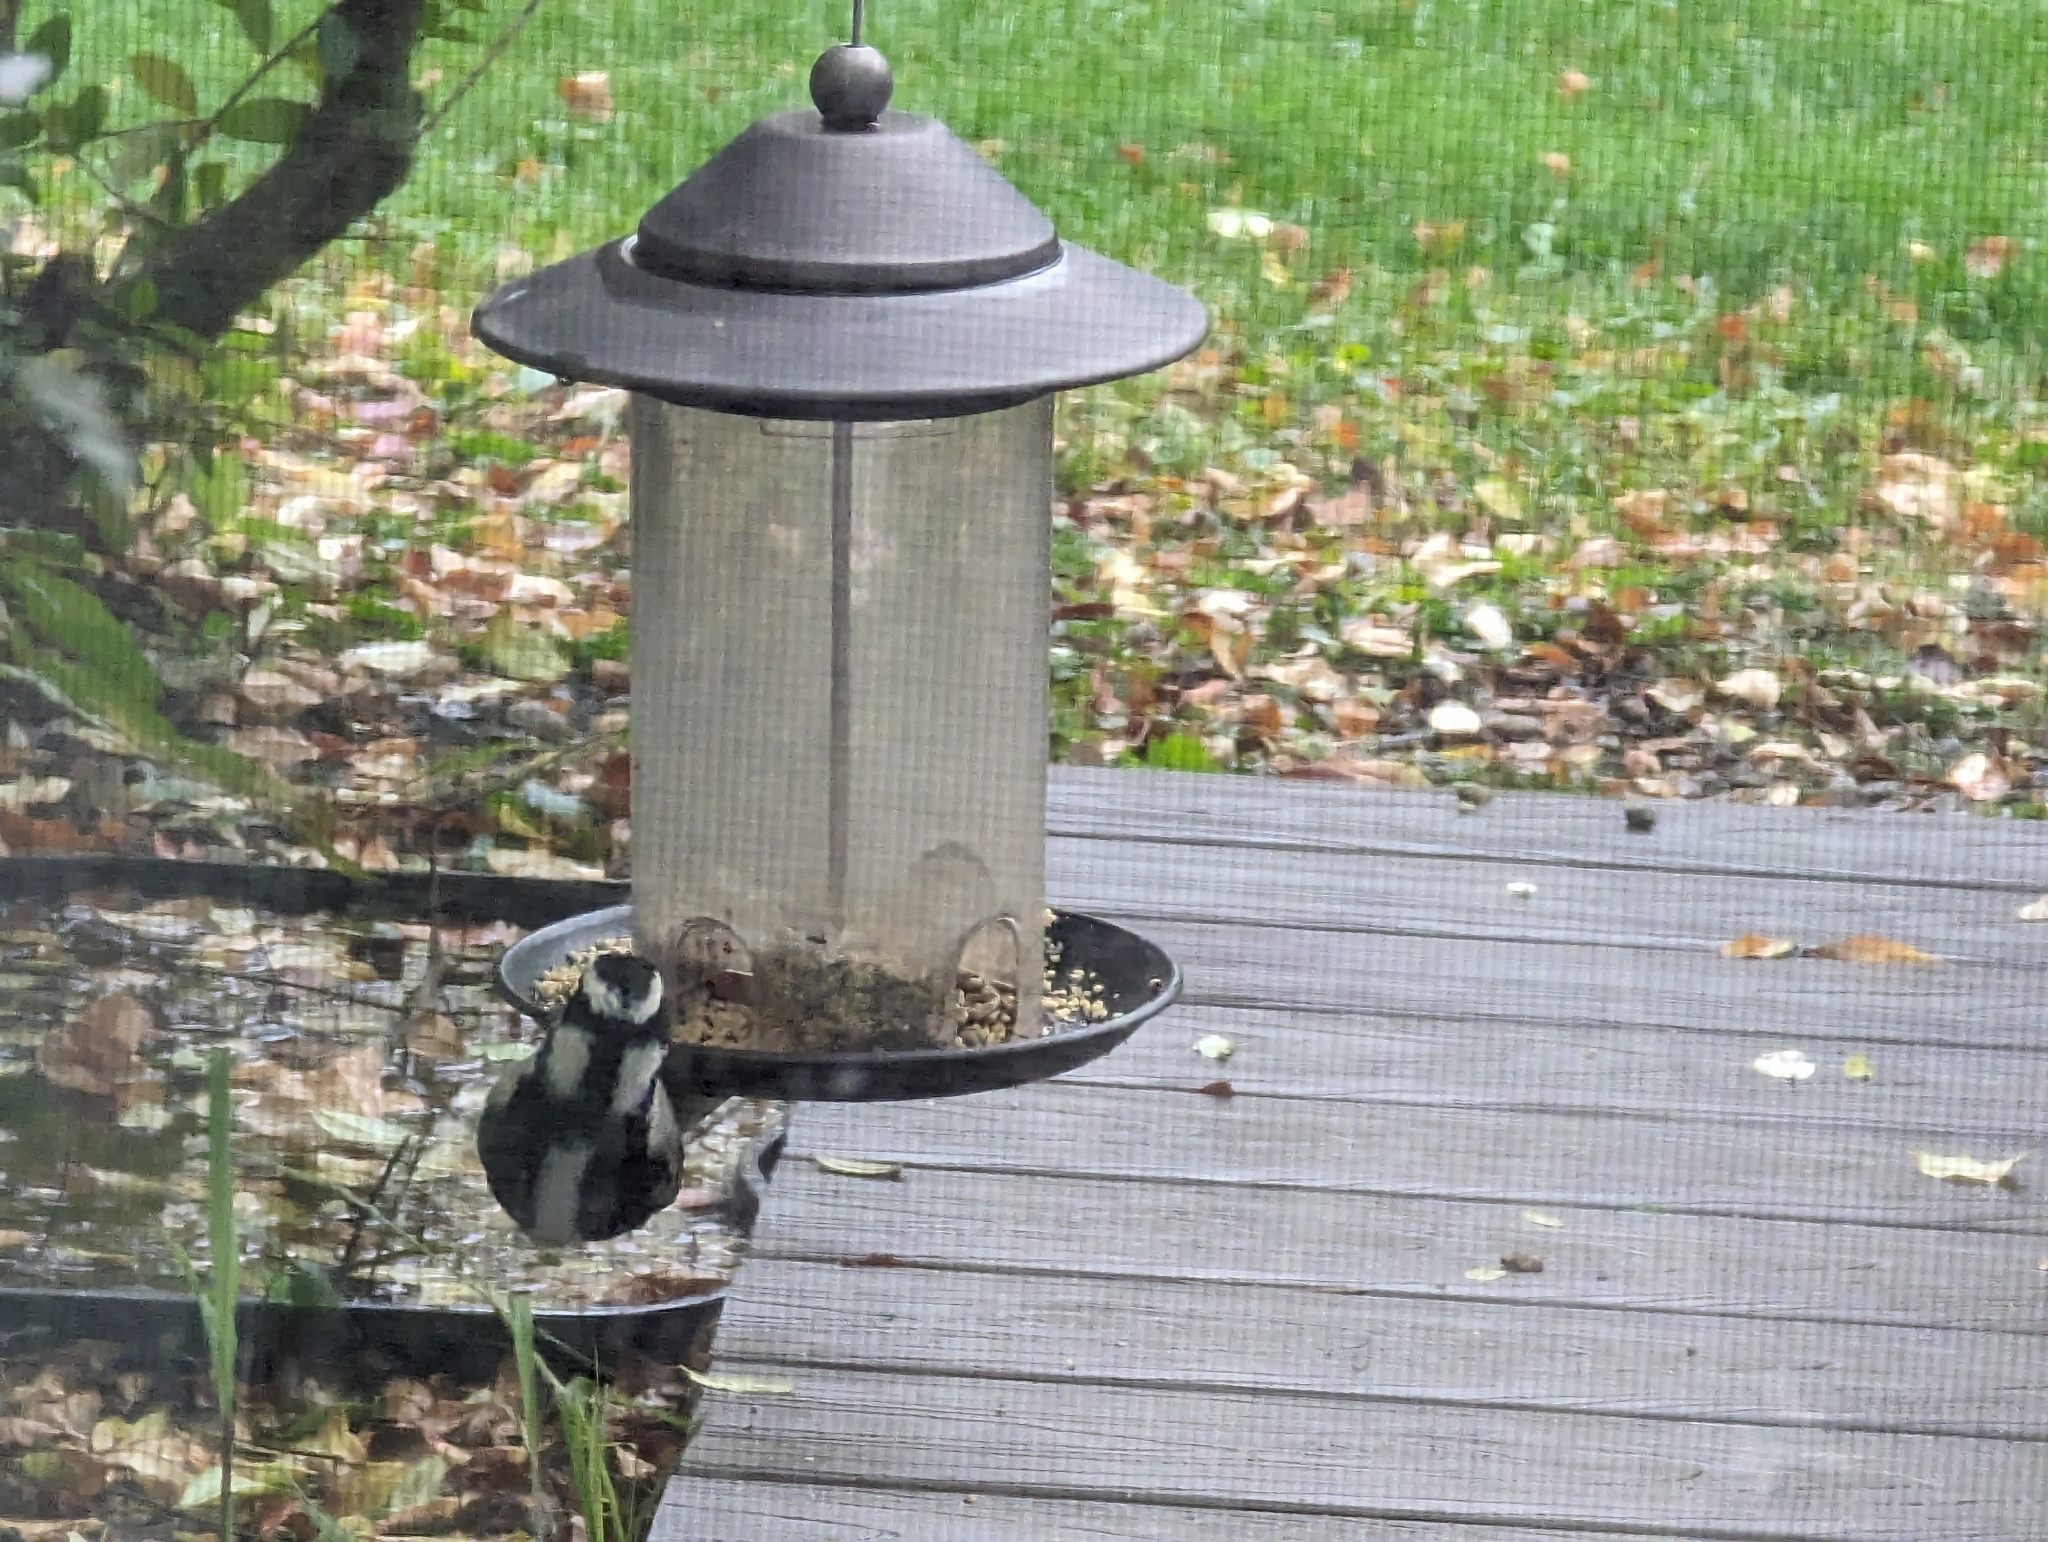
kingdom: Animalia
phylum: Chordata
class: Aves
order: Piciformes
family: Picidae
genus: Dryobates
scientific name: Dryobates pubescens
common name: Downy woodpecker
